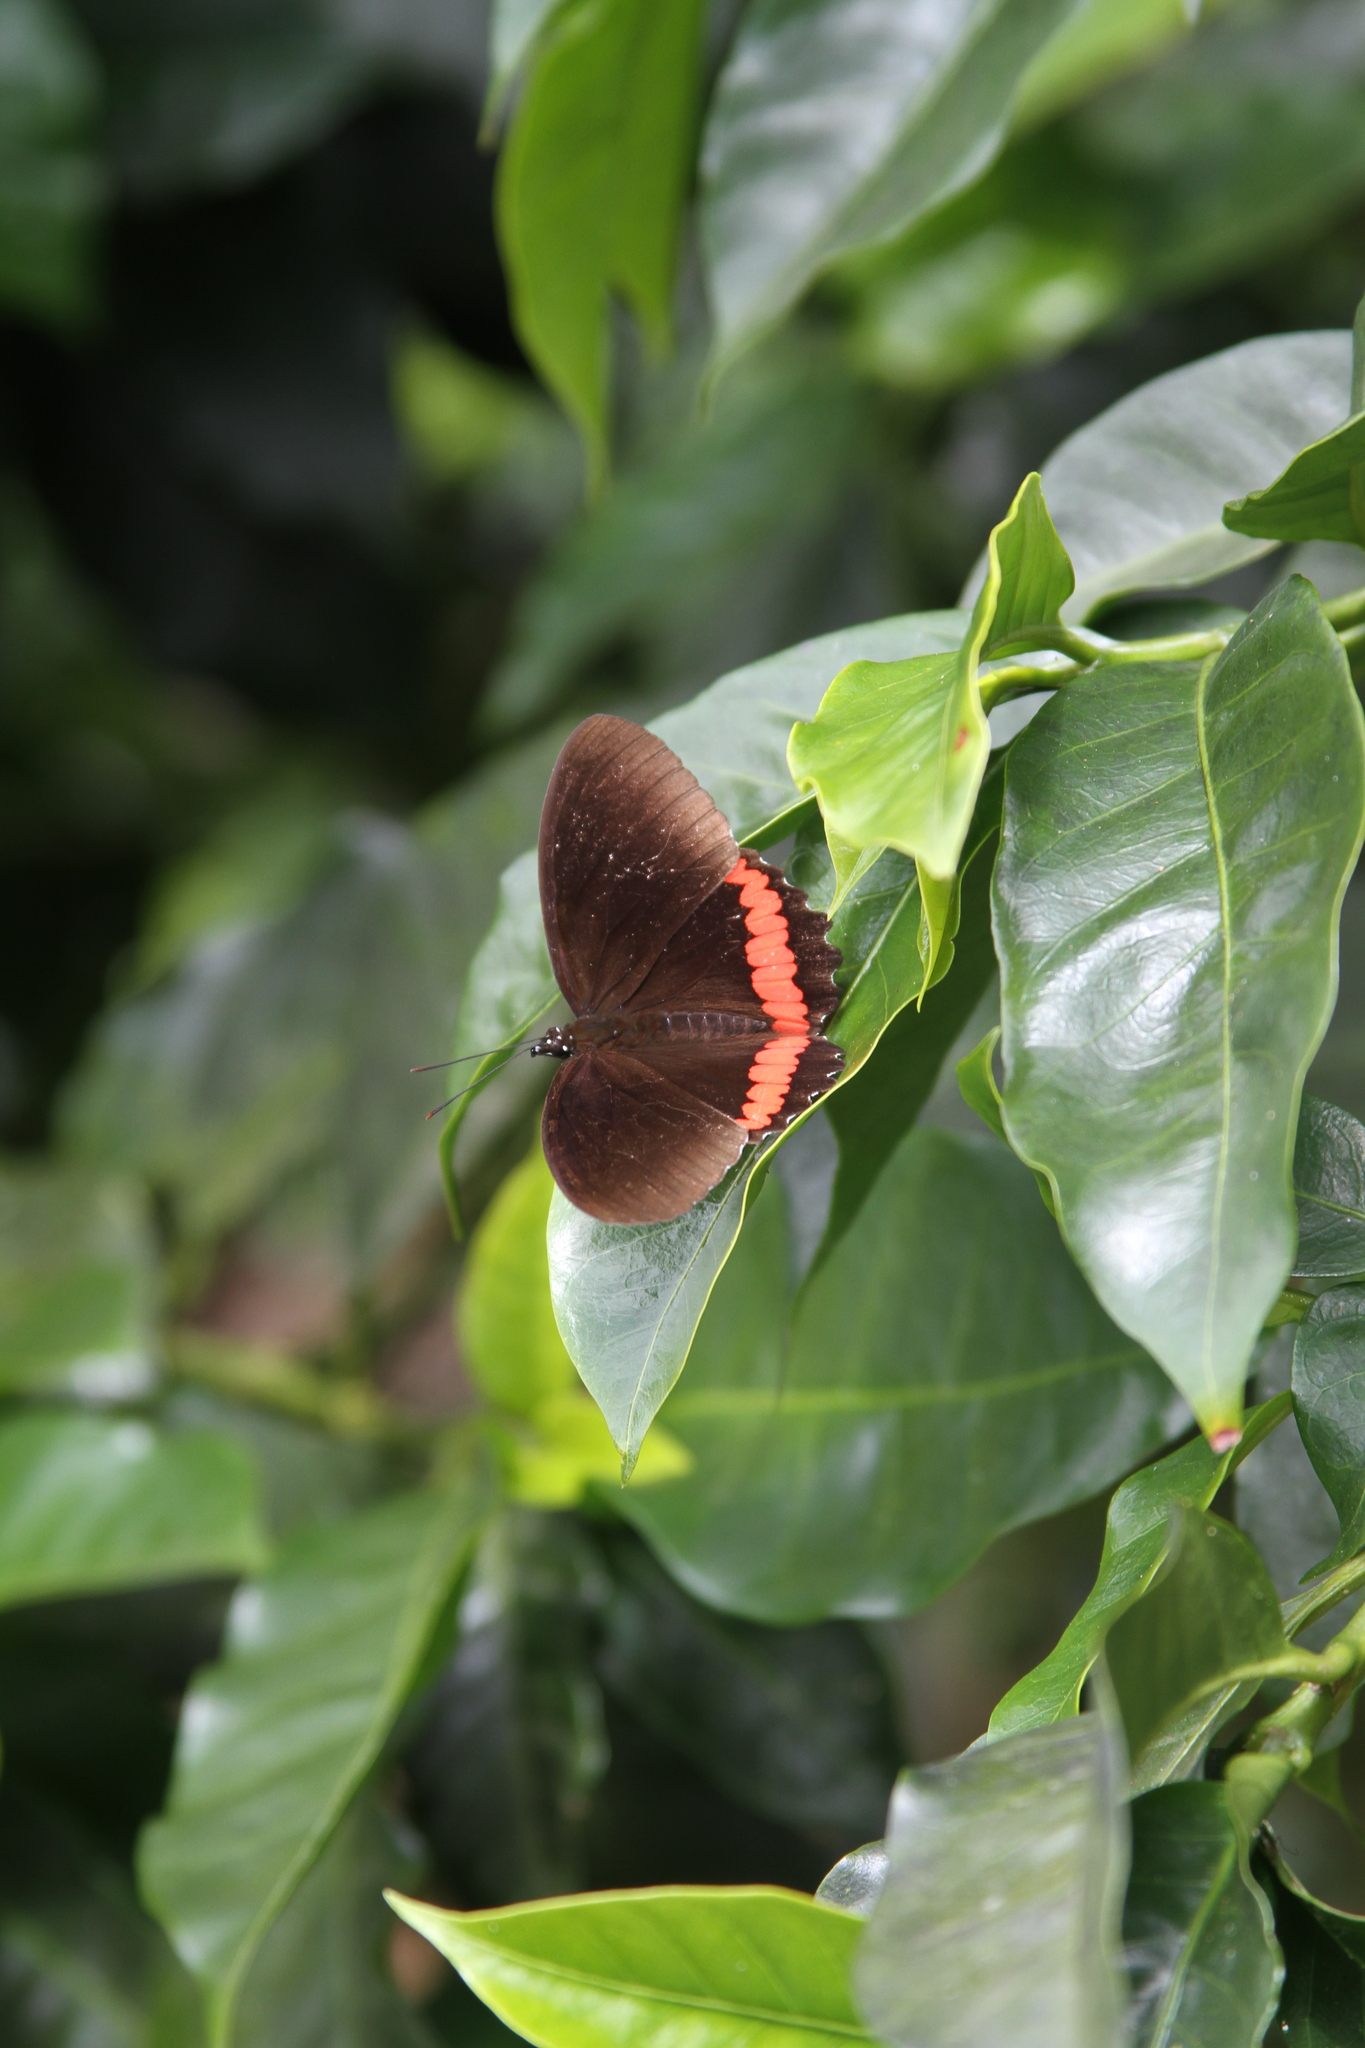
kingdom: Animalia
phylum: Arthropoda
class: Insecta
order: Lepidoptera
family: Nymphalidae
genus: Biblis
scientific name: Biblis aganisa
